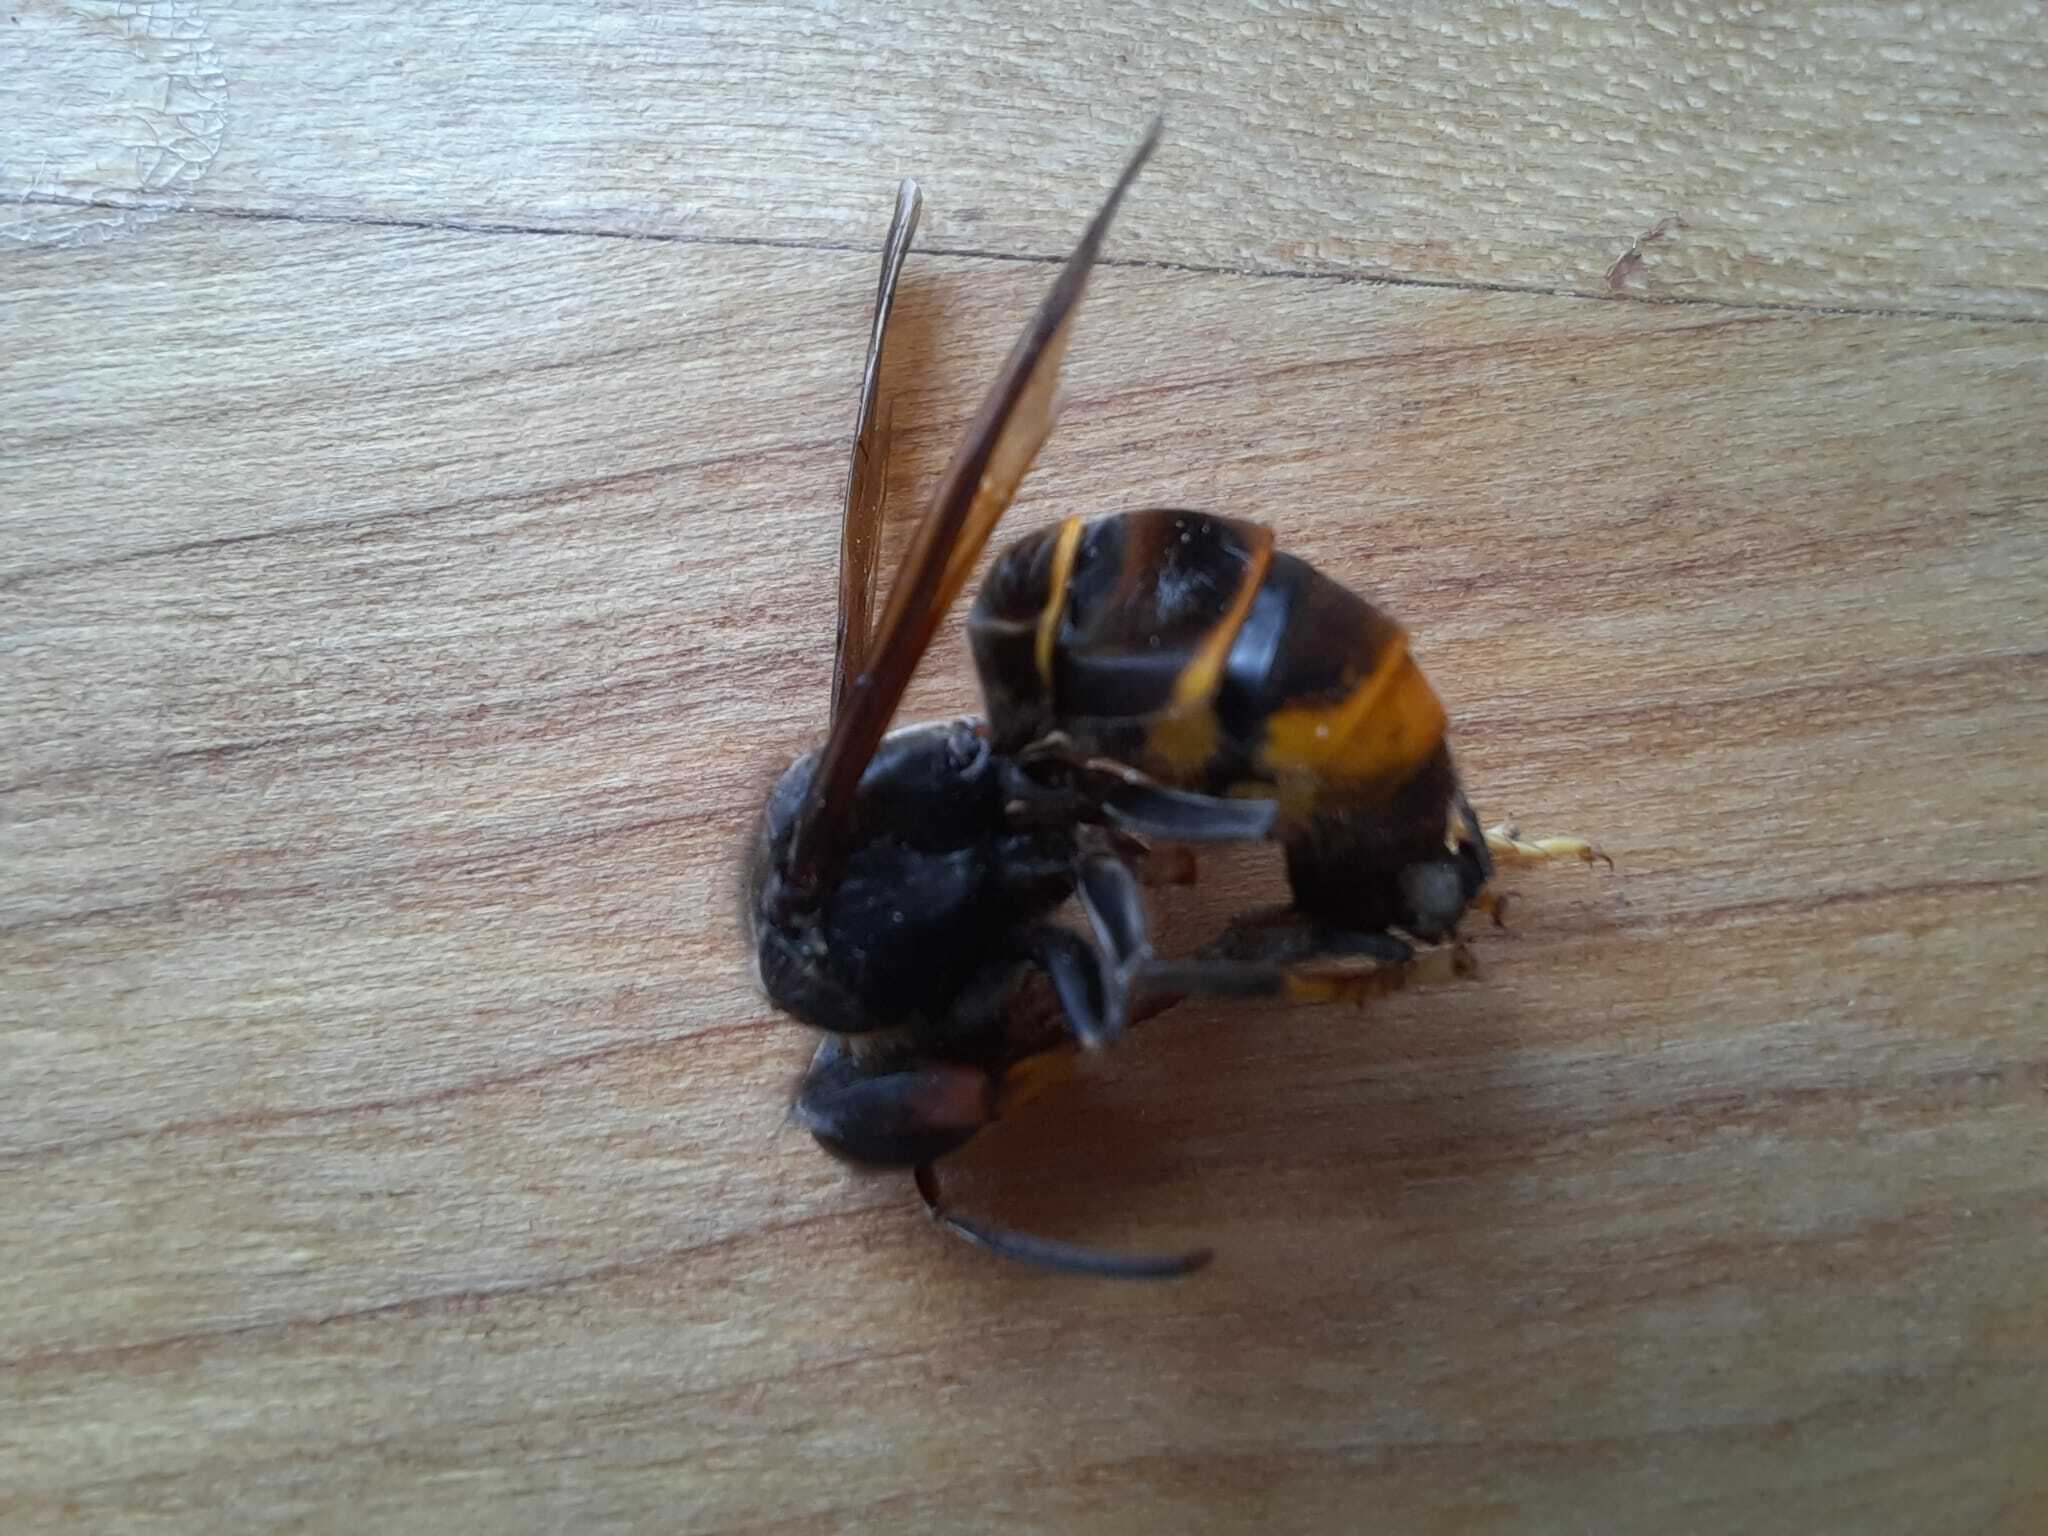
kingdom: Animalia
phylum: Arthropoda
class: Insecta
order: Hymenoptera
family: Vespidae
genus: Vespa
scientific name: Vespa velutina
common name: Asian hornet
